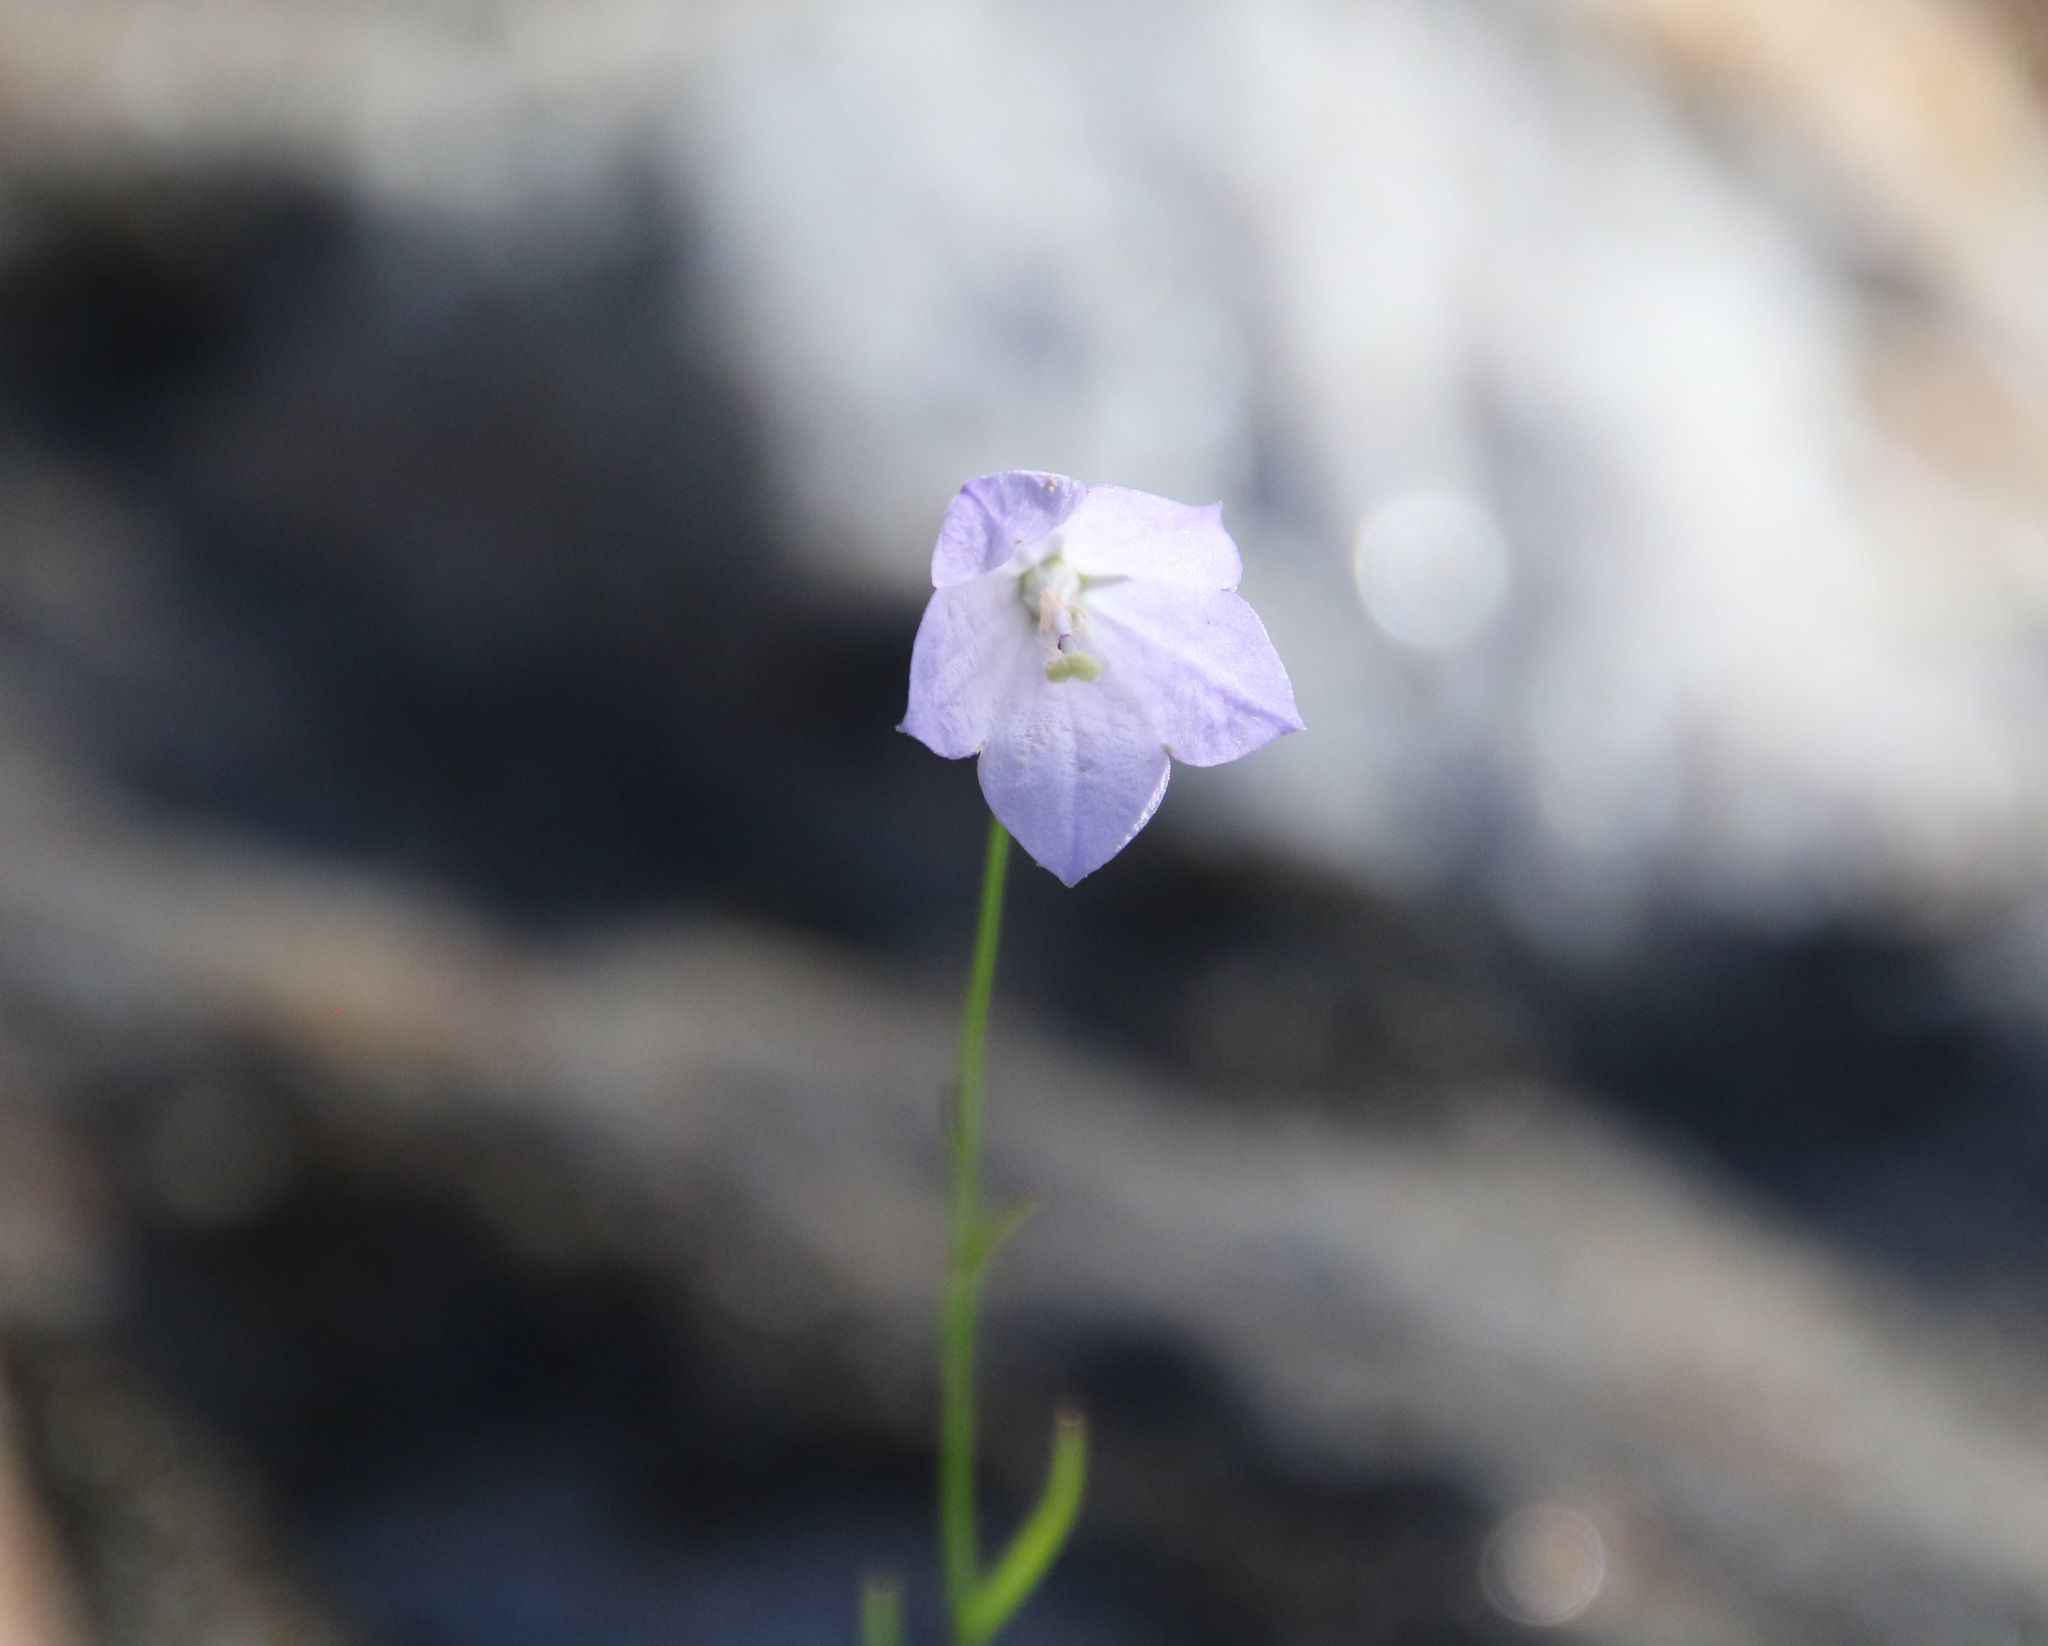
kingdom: Plantae
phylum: Tracheophyta
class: Magnoliopsida
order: Asterales
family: Campanulaceae
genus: Campanula
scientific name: Campanula intercedens
